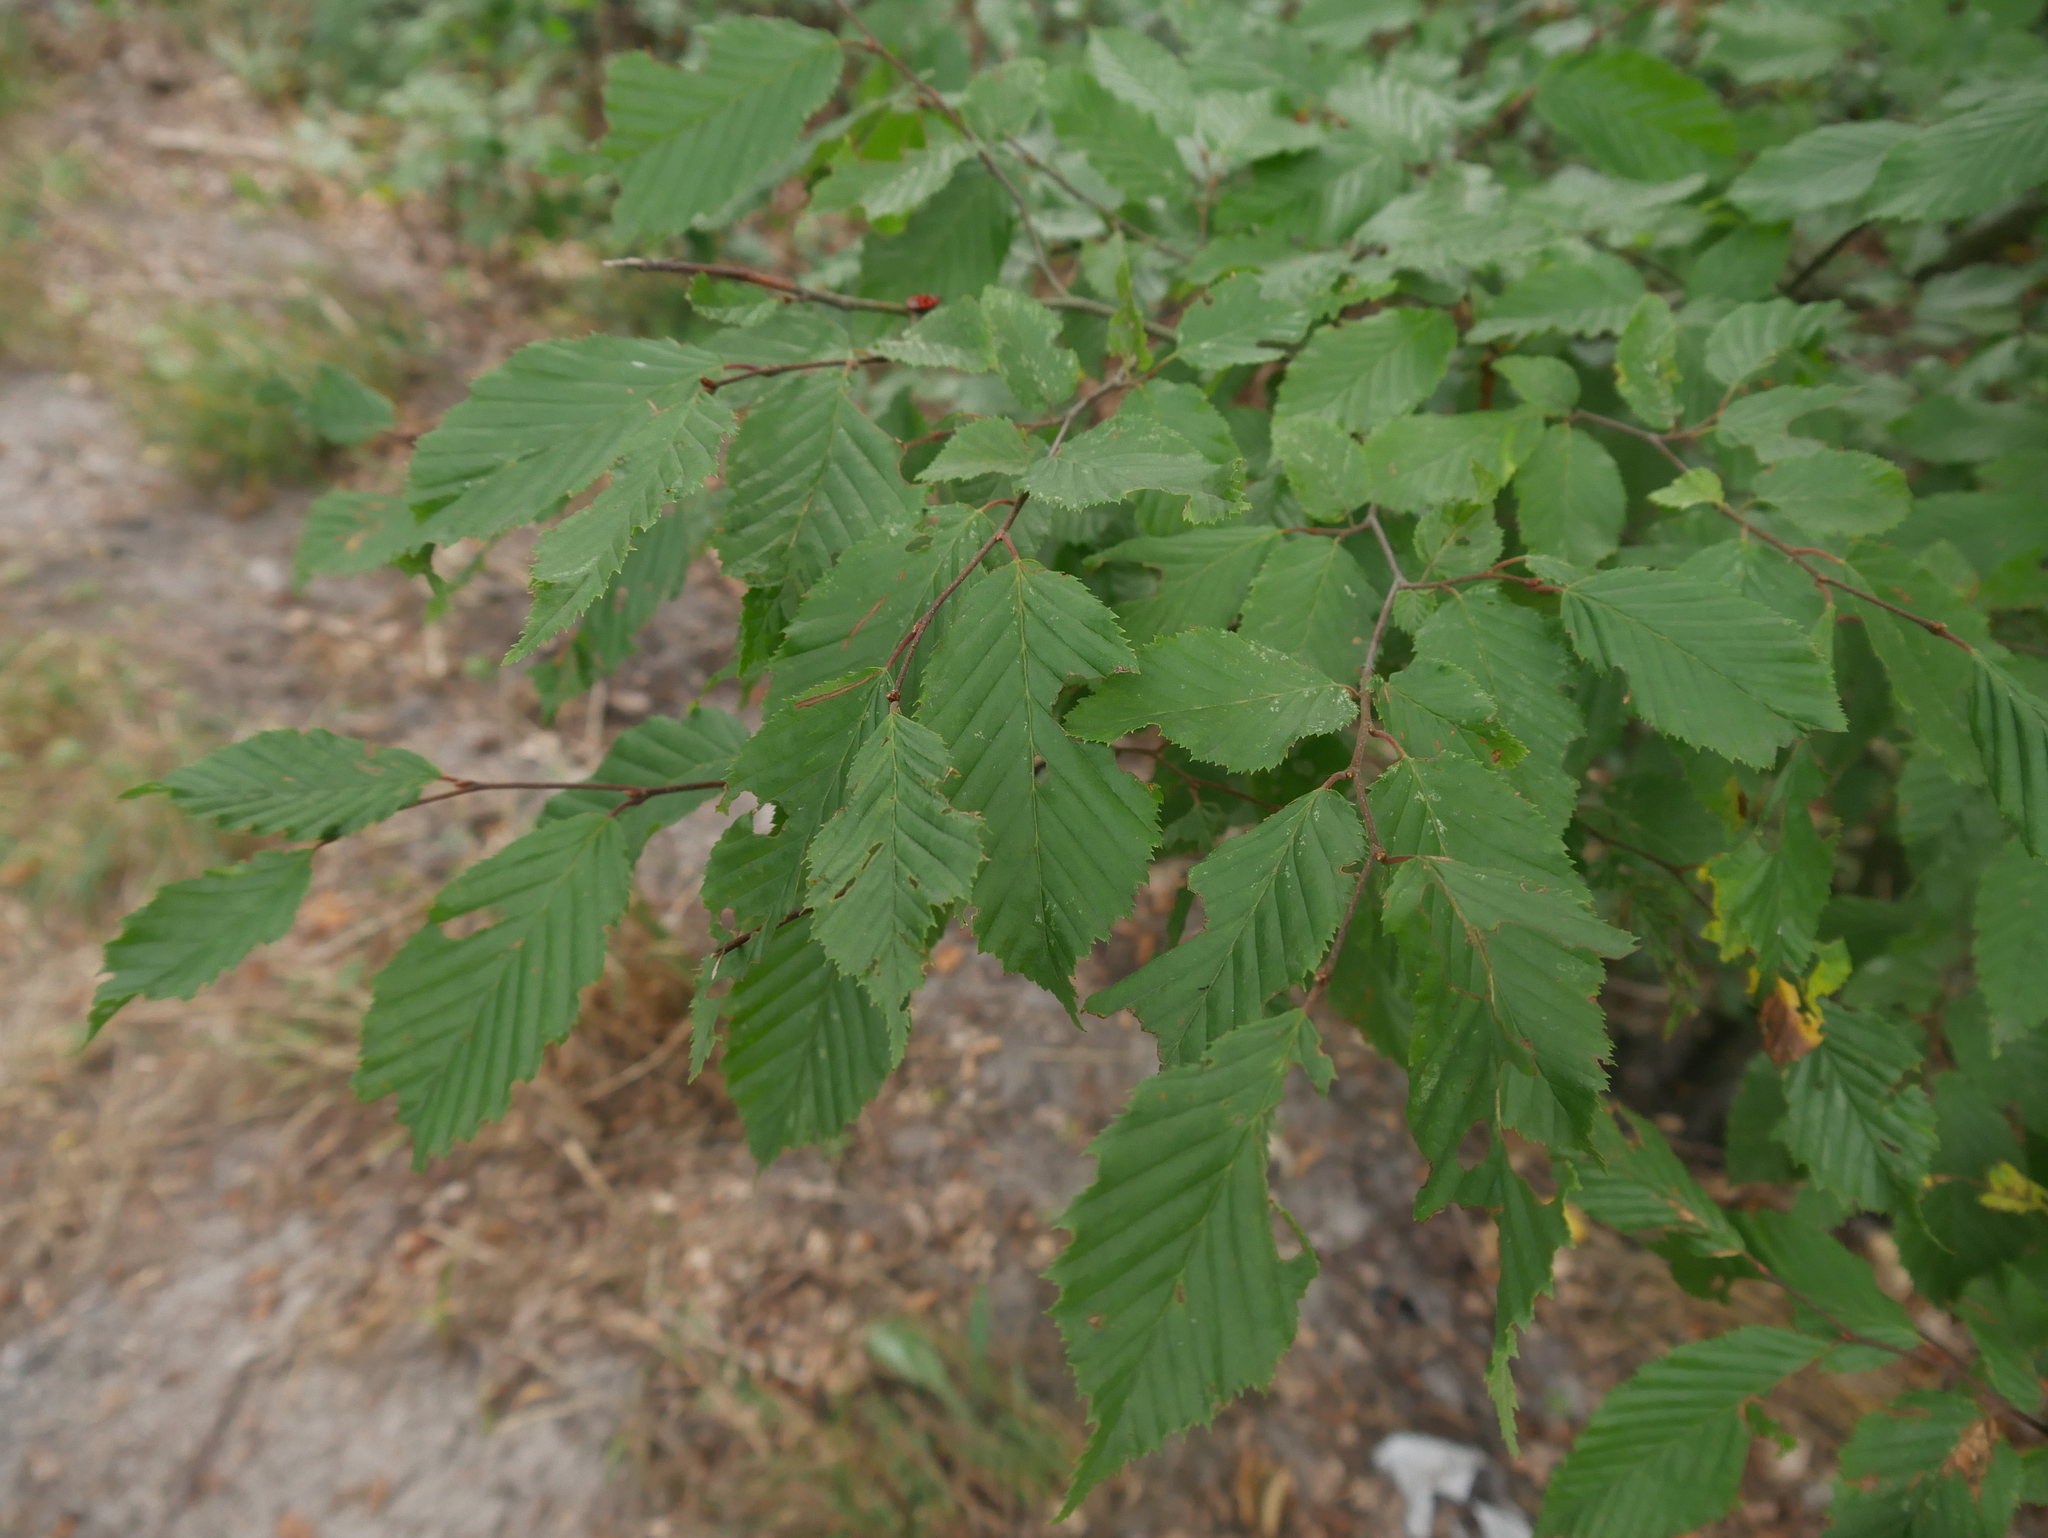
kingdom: Plantae
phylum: Tracheophyta
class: Magnoliopsida
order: Fagales
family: Betulaceae
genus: Carpinus
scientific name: Carpinus betulus
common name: Hornbeam
